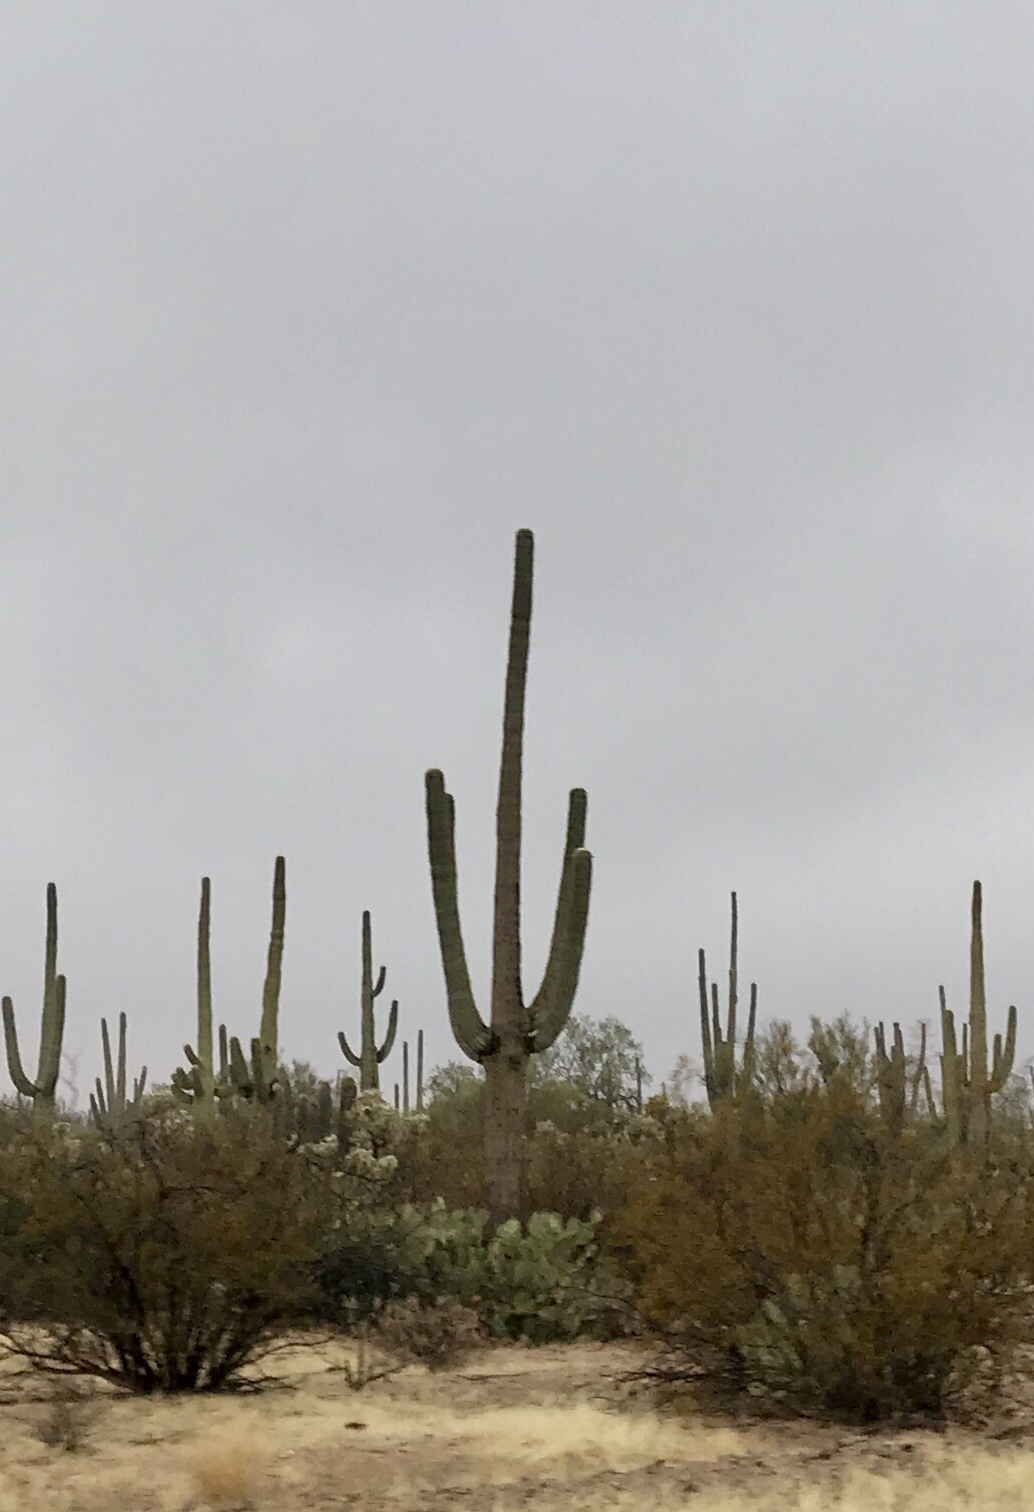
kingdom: Plantae
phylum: Tracheophyta
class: Magnoliopsida
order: Caryophyllales
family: Cactaceae
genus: Carnegiea
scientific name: Carnegiea gigantea
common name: Saguaro
